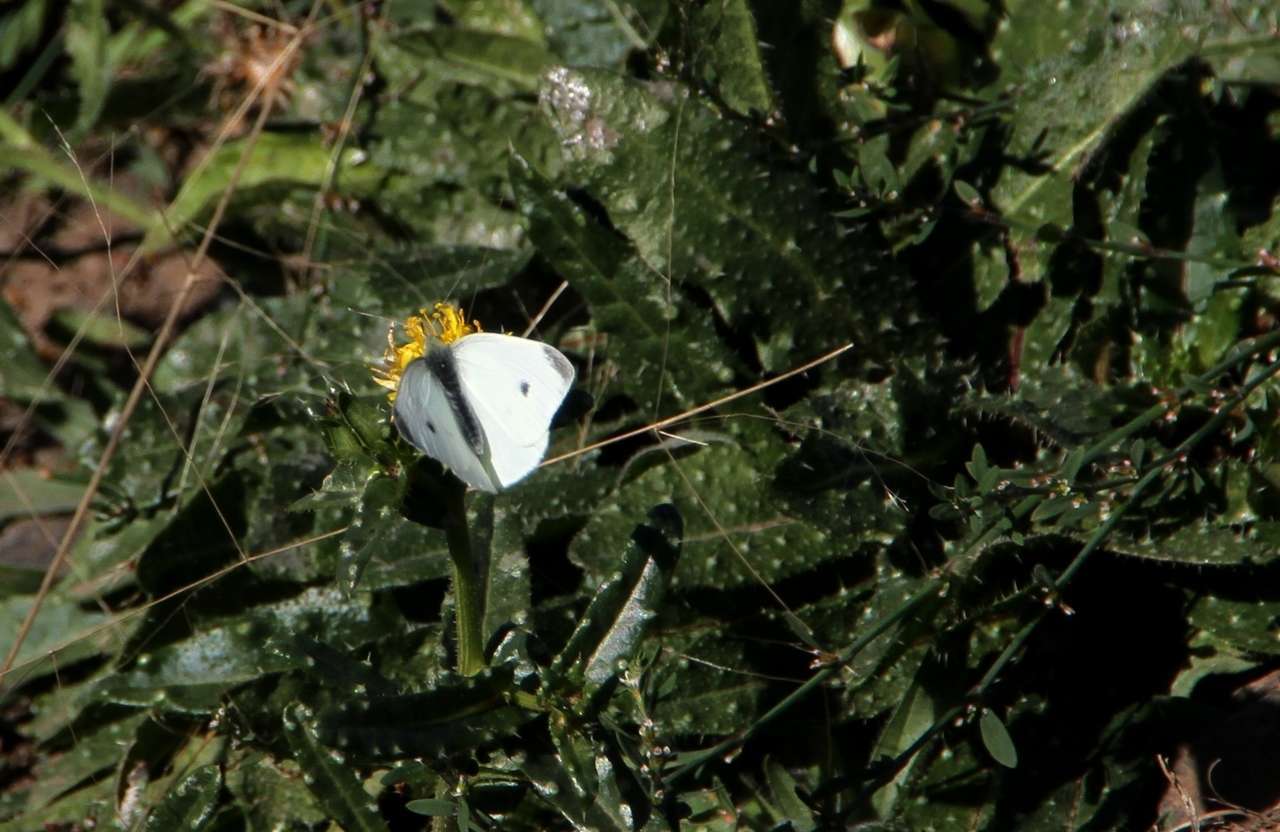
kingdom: Animalia
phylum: Arthropoda
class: Insecta
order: Lepidoptera
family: Pieridae
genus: Pieris
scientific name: Pieris rapae
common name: Small white
